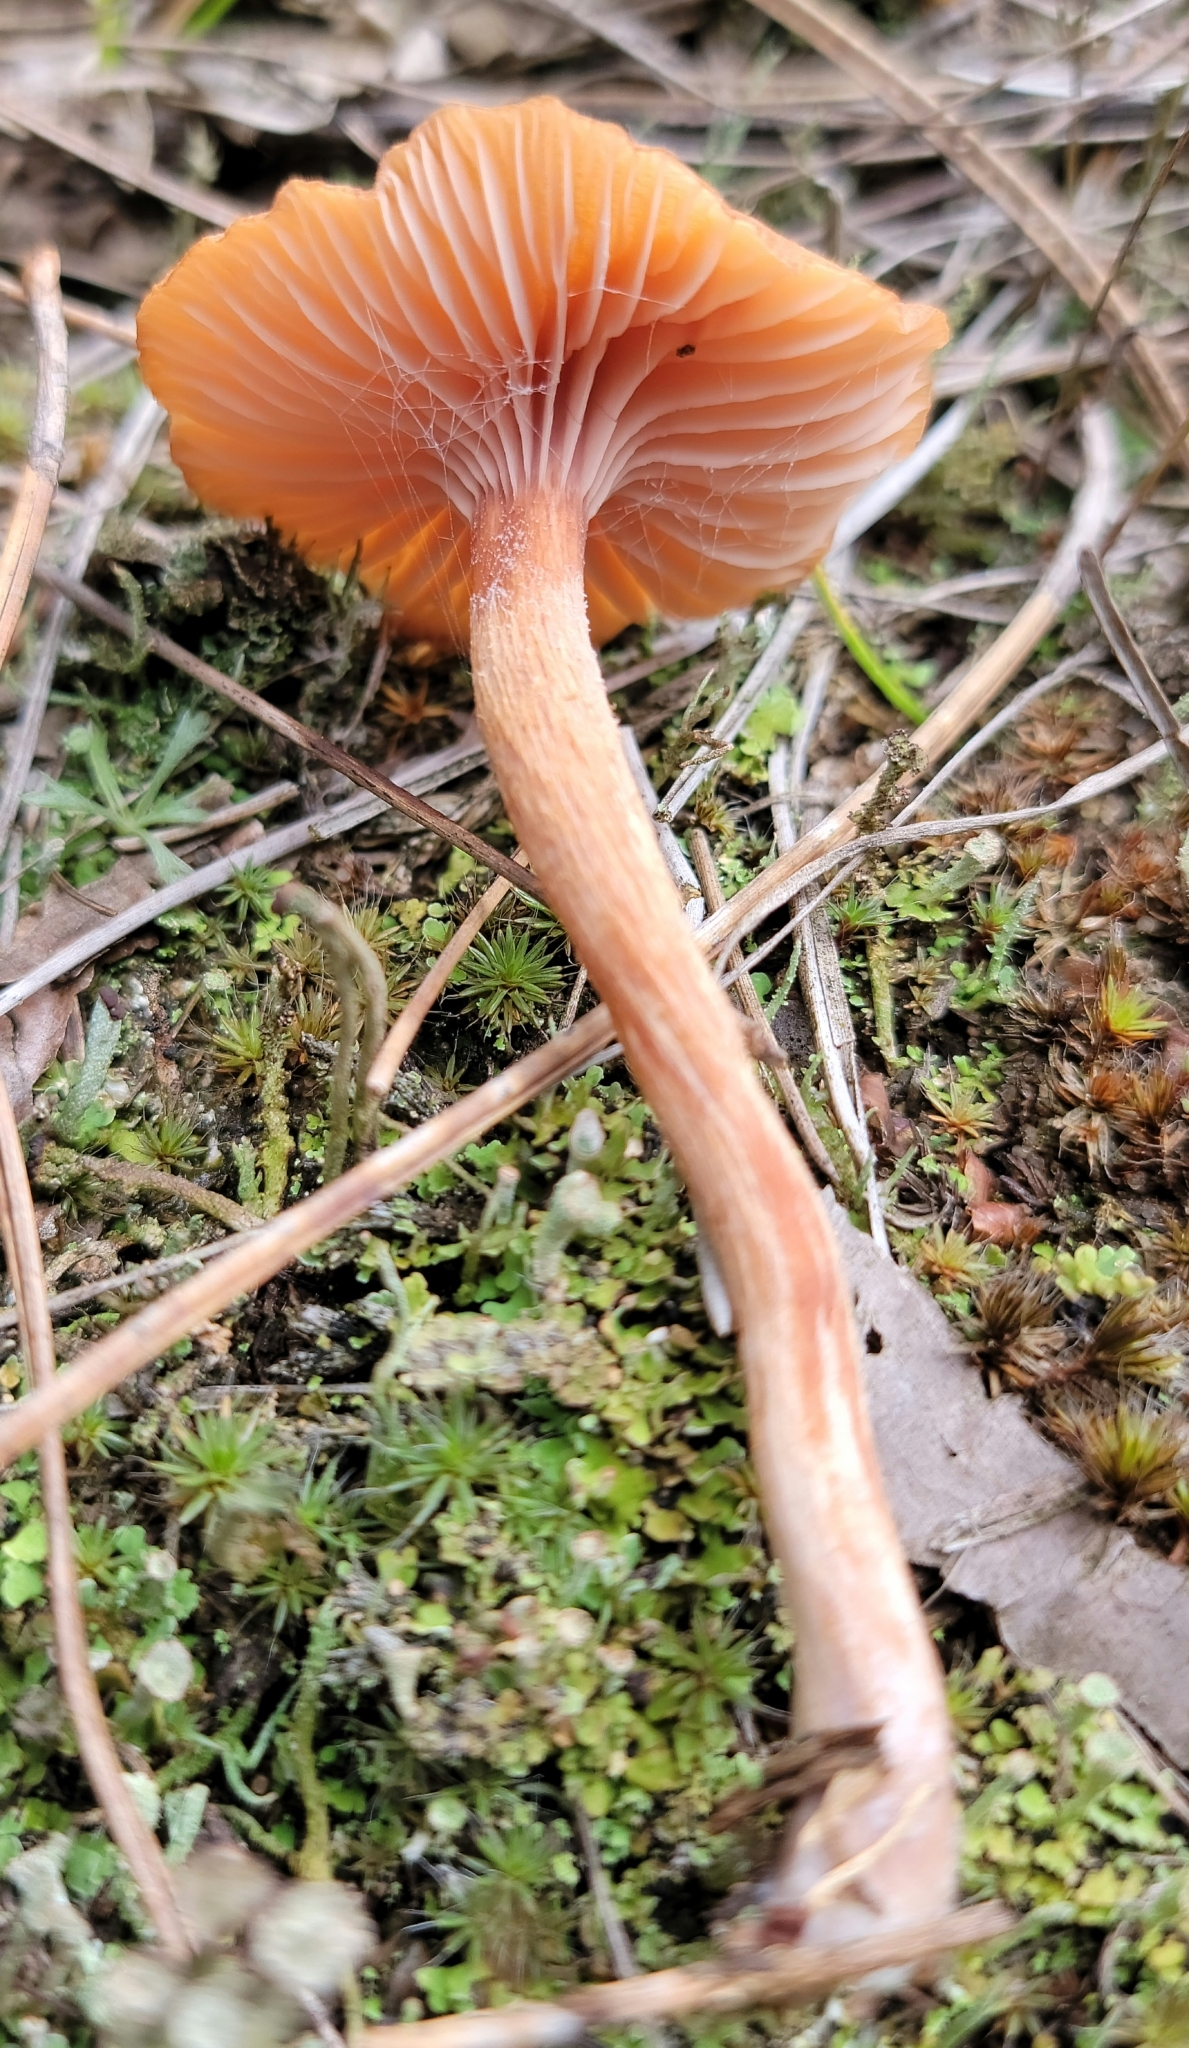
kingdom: Fungi
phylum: Basidiomycota
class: Agaricomycetes
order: Agaricales
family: Hydnangiaceae
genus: Laccaria
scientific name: Laccaria laccata
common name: Deceiver
